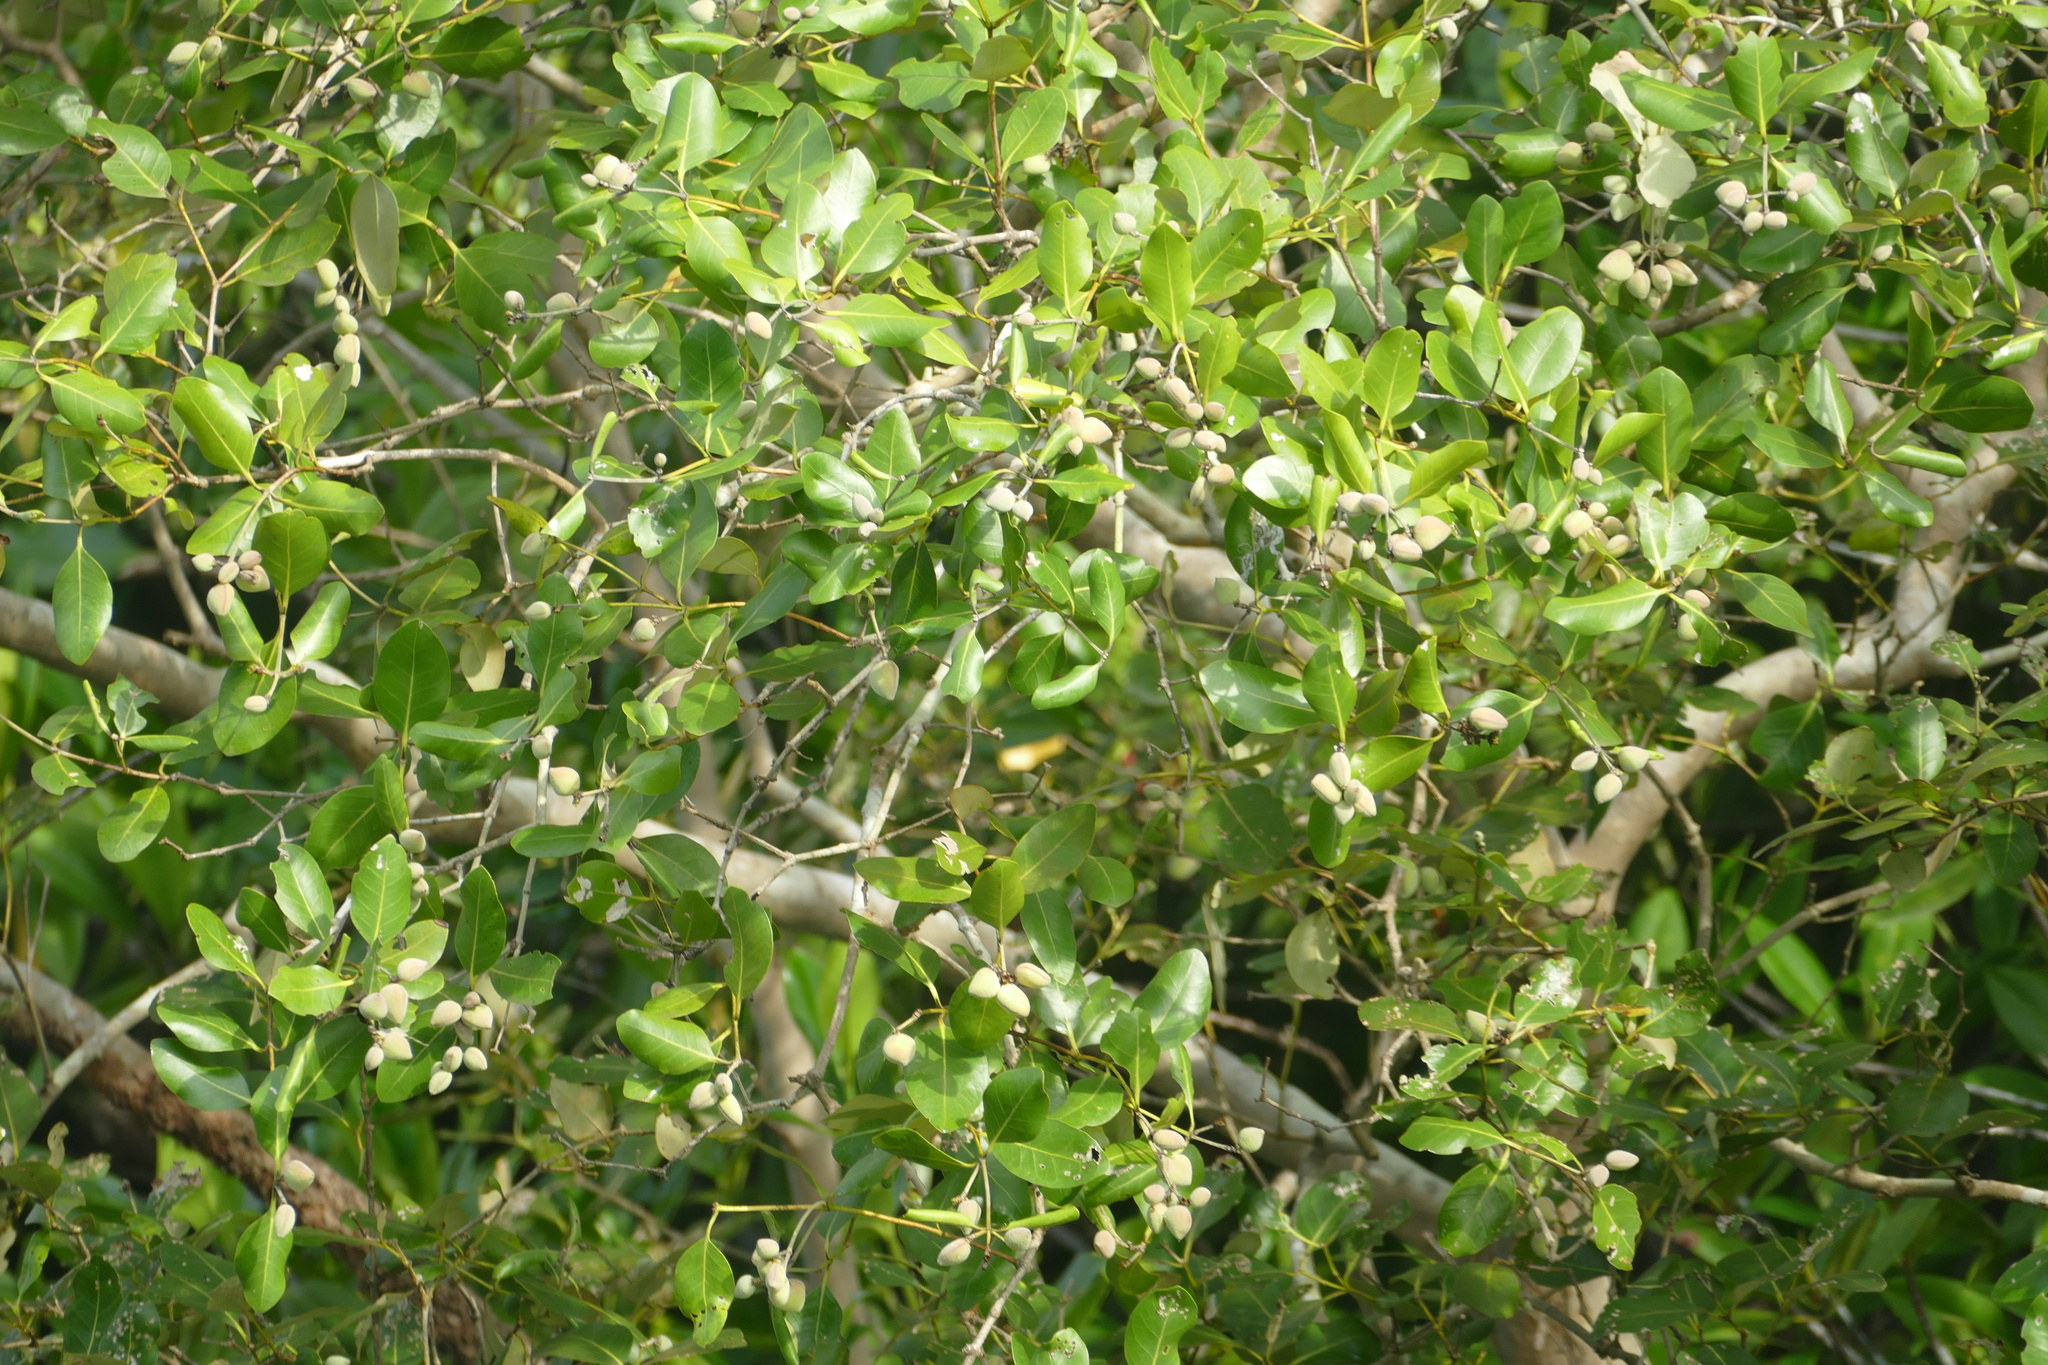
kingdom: Plantae
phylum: Tracheophyta
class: Magnoliopsida
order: Lamiales
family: Acanthaceae
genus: Avicennia
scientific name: Avicennia marina
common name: Gray mangrove
